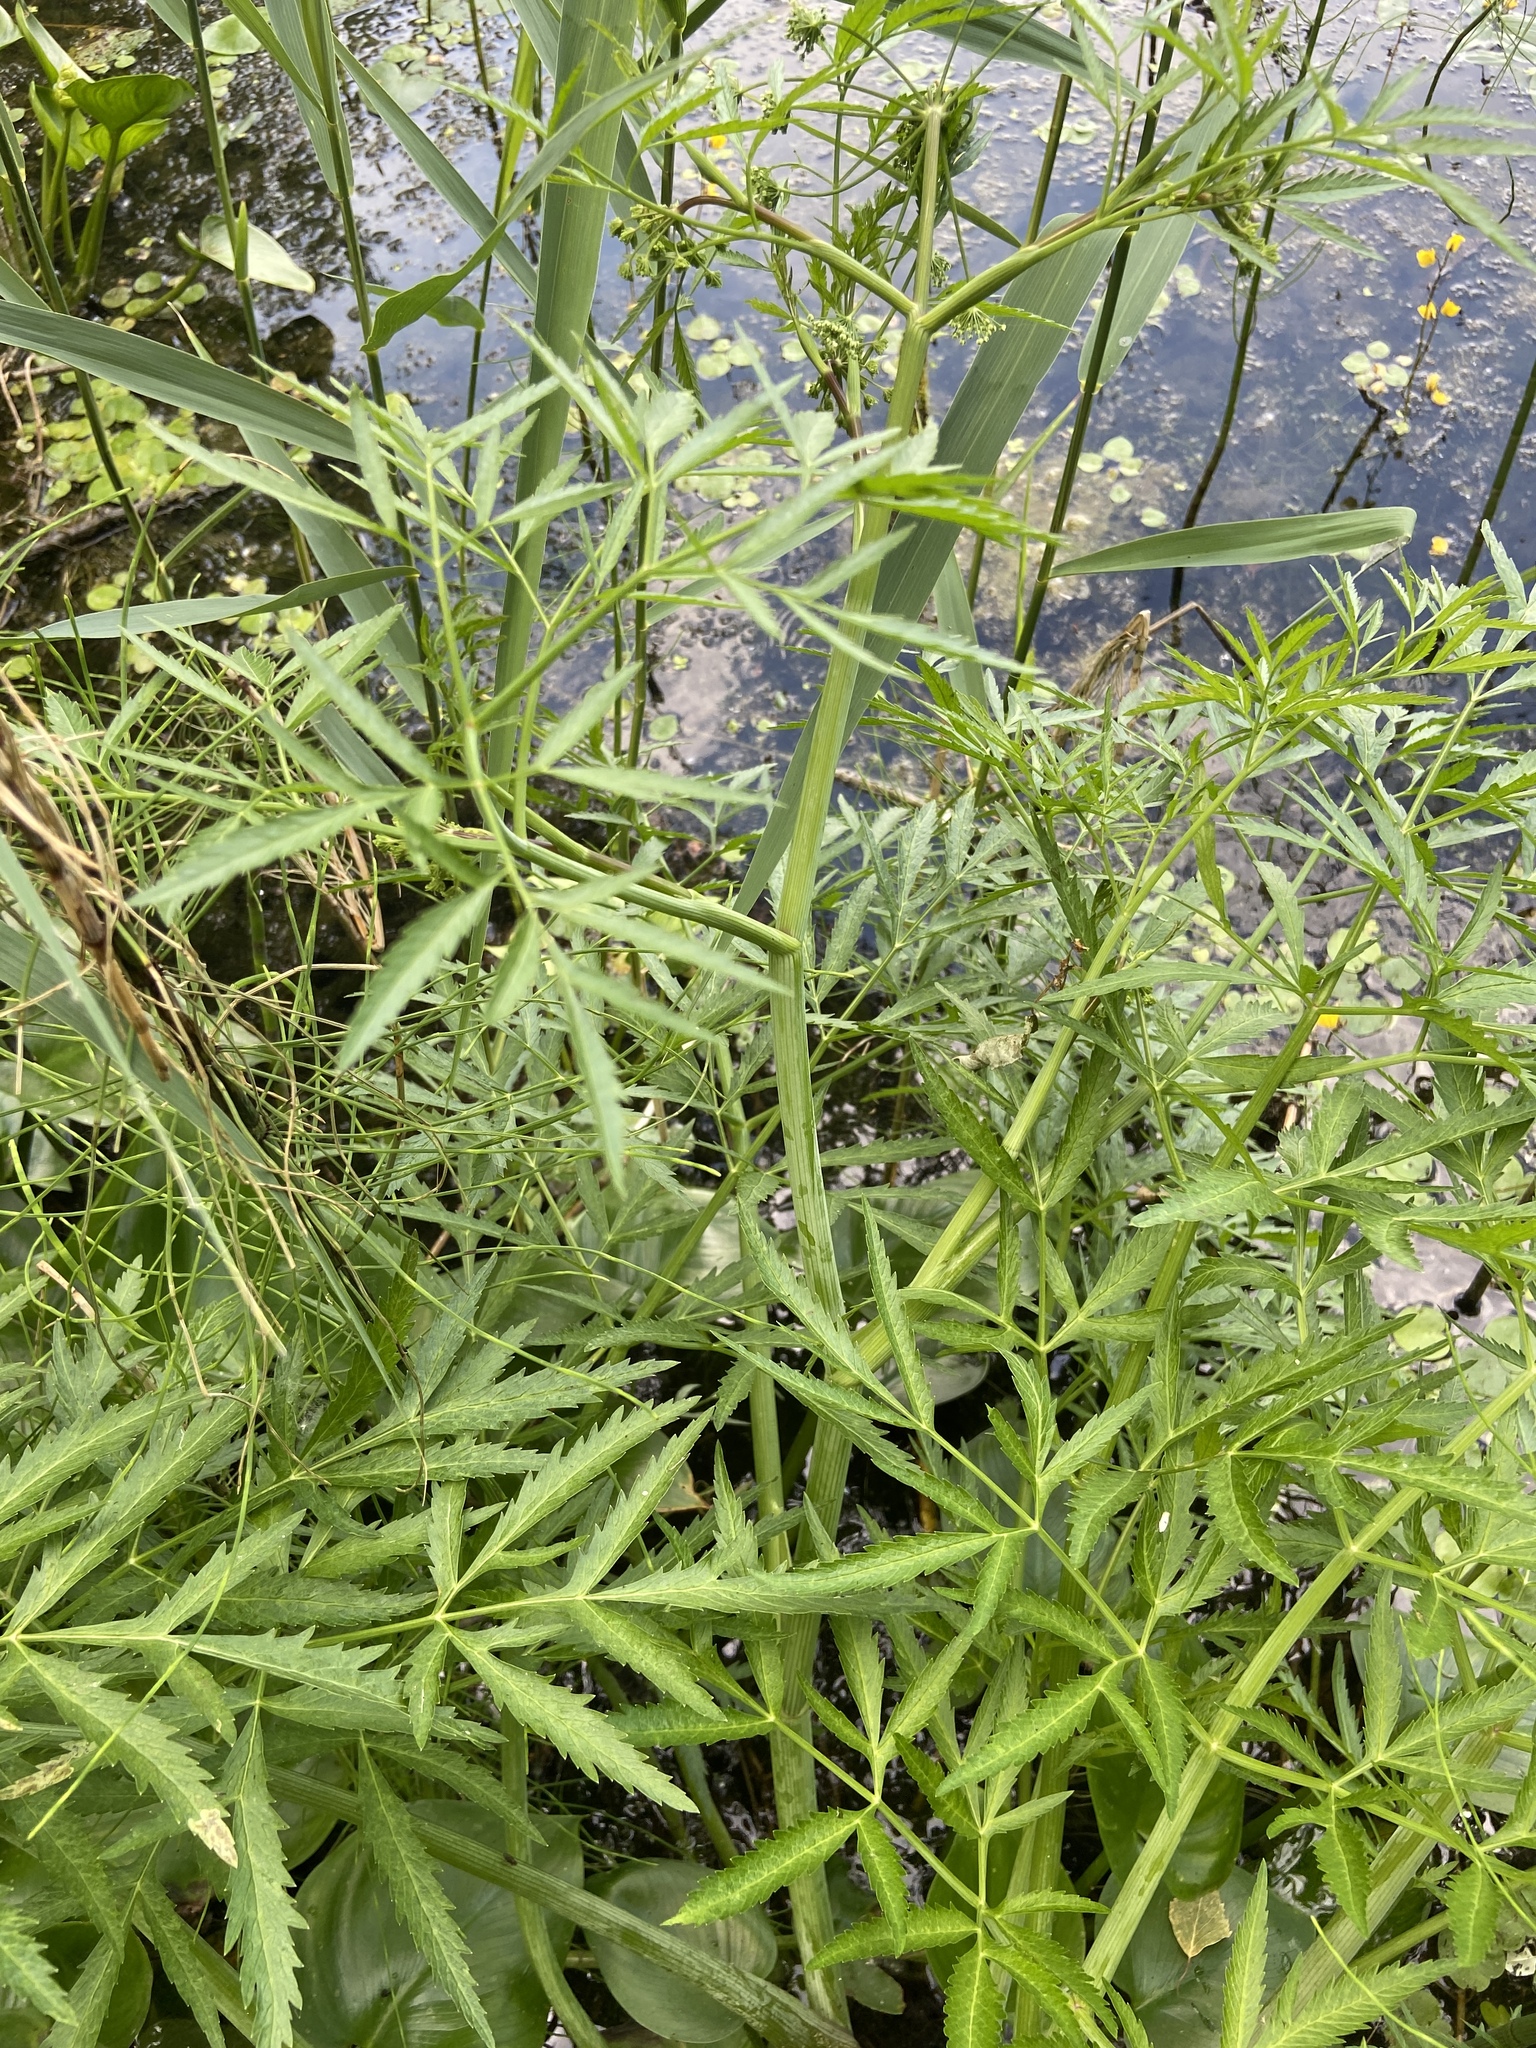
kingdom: Plantae
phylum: Tracheophyta
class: Magnoliopsida
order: Apiales
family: Apiaceae
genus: Cicuta
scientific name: Cicuta virosa
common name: Cowbane
